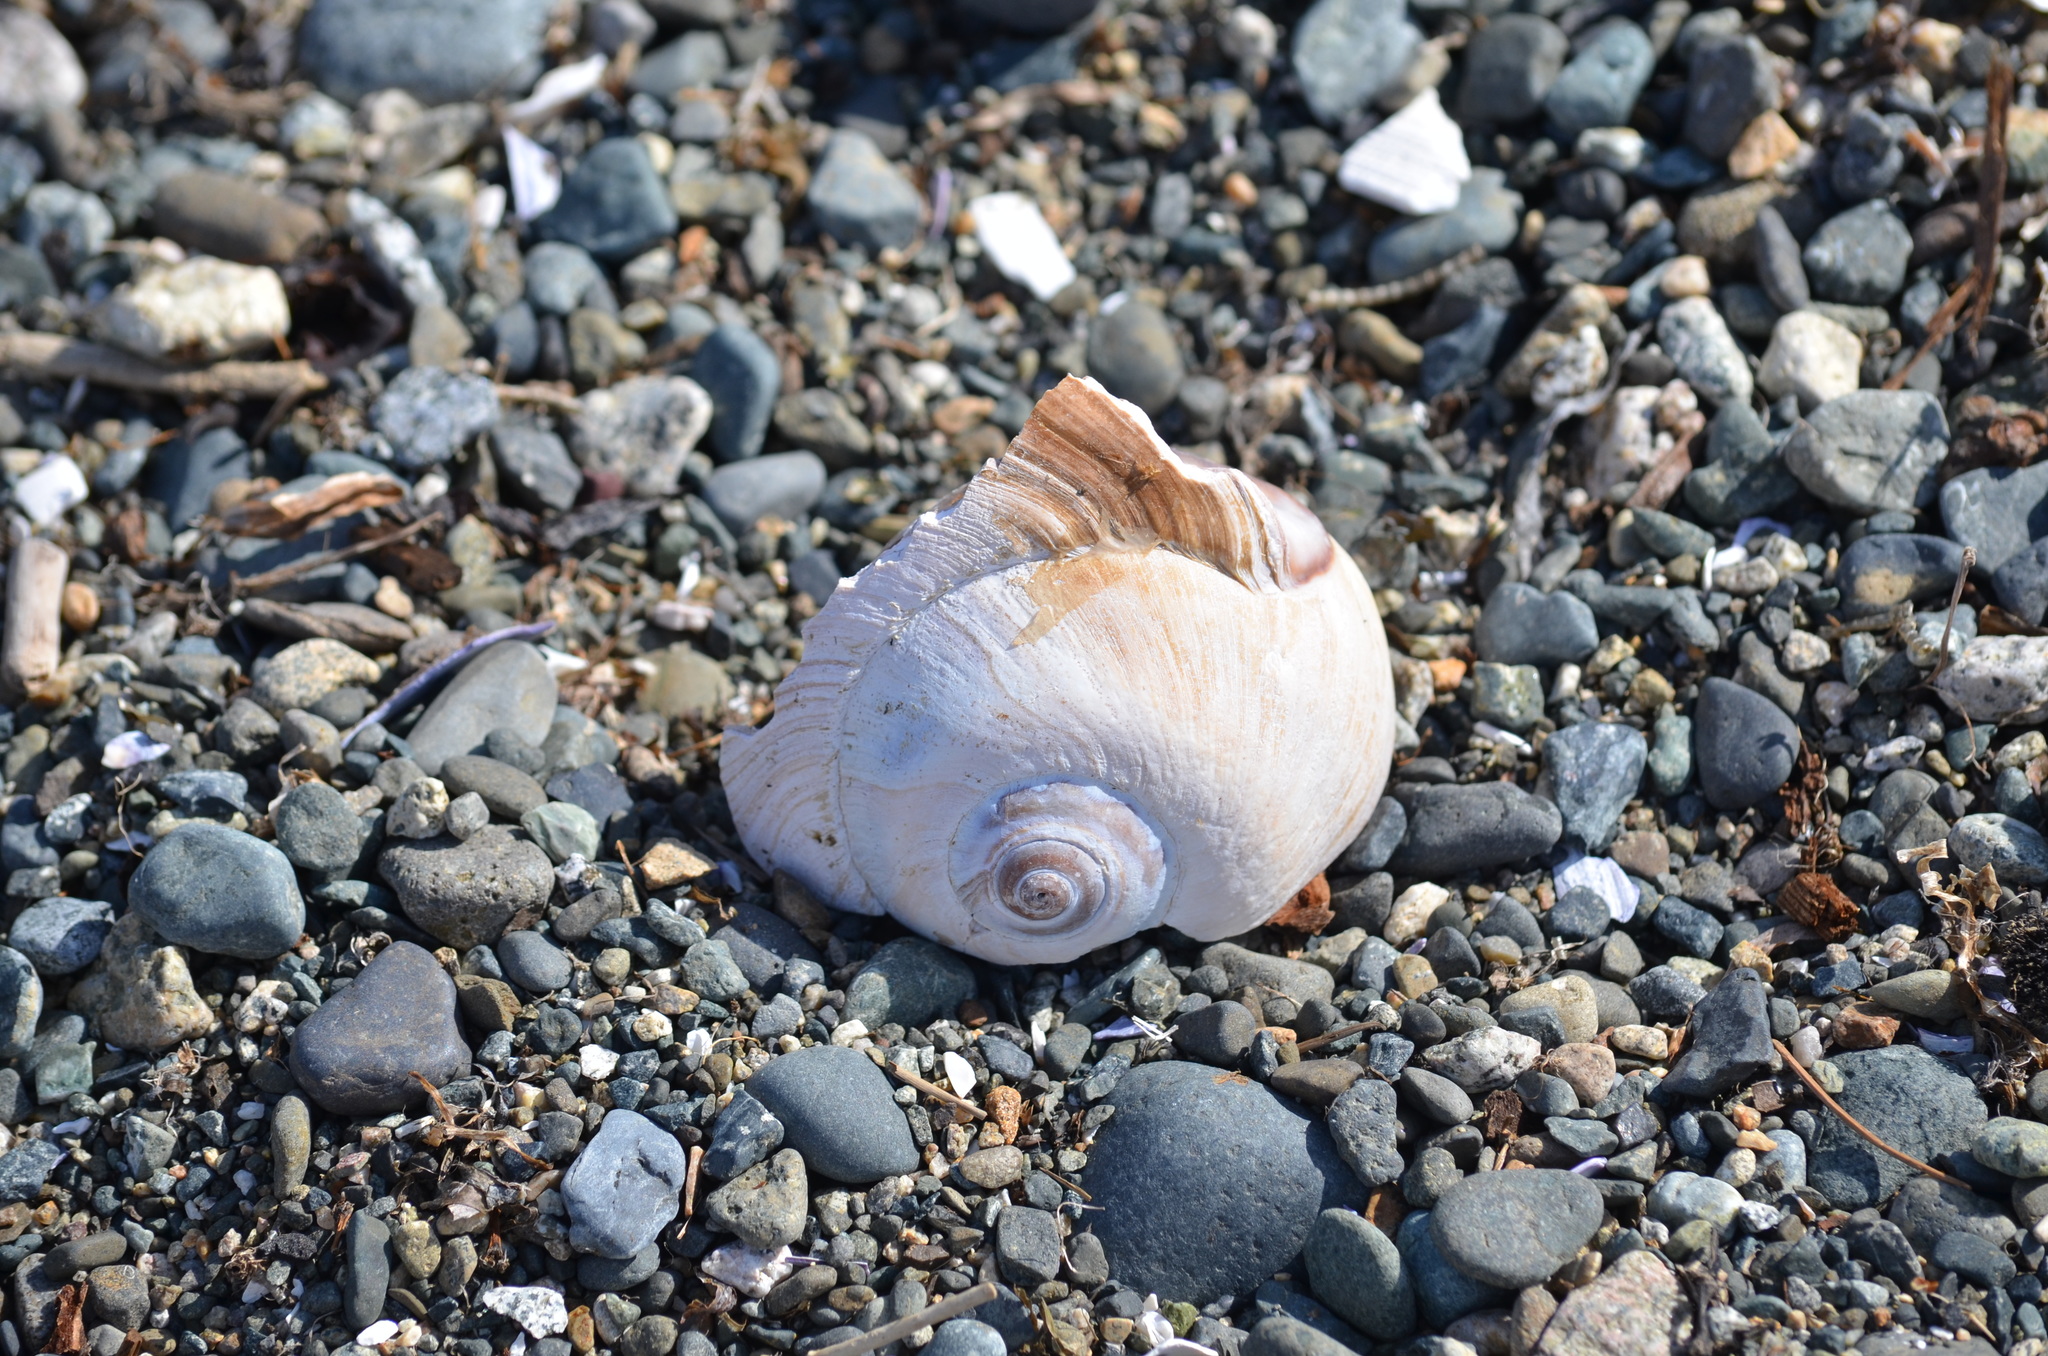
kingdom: Animalia
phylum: Mollusca
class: Gastropoda
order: Littorinimorpha
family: Naticidae
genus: Neverita
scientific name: Neverita lewisii
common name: Lewis' moonsnail
